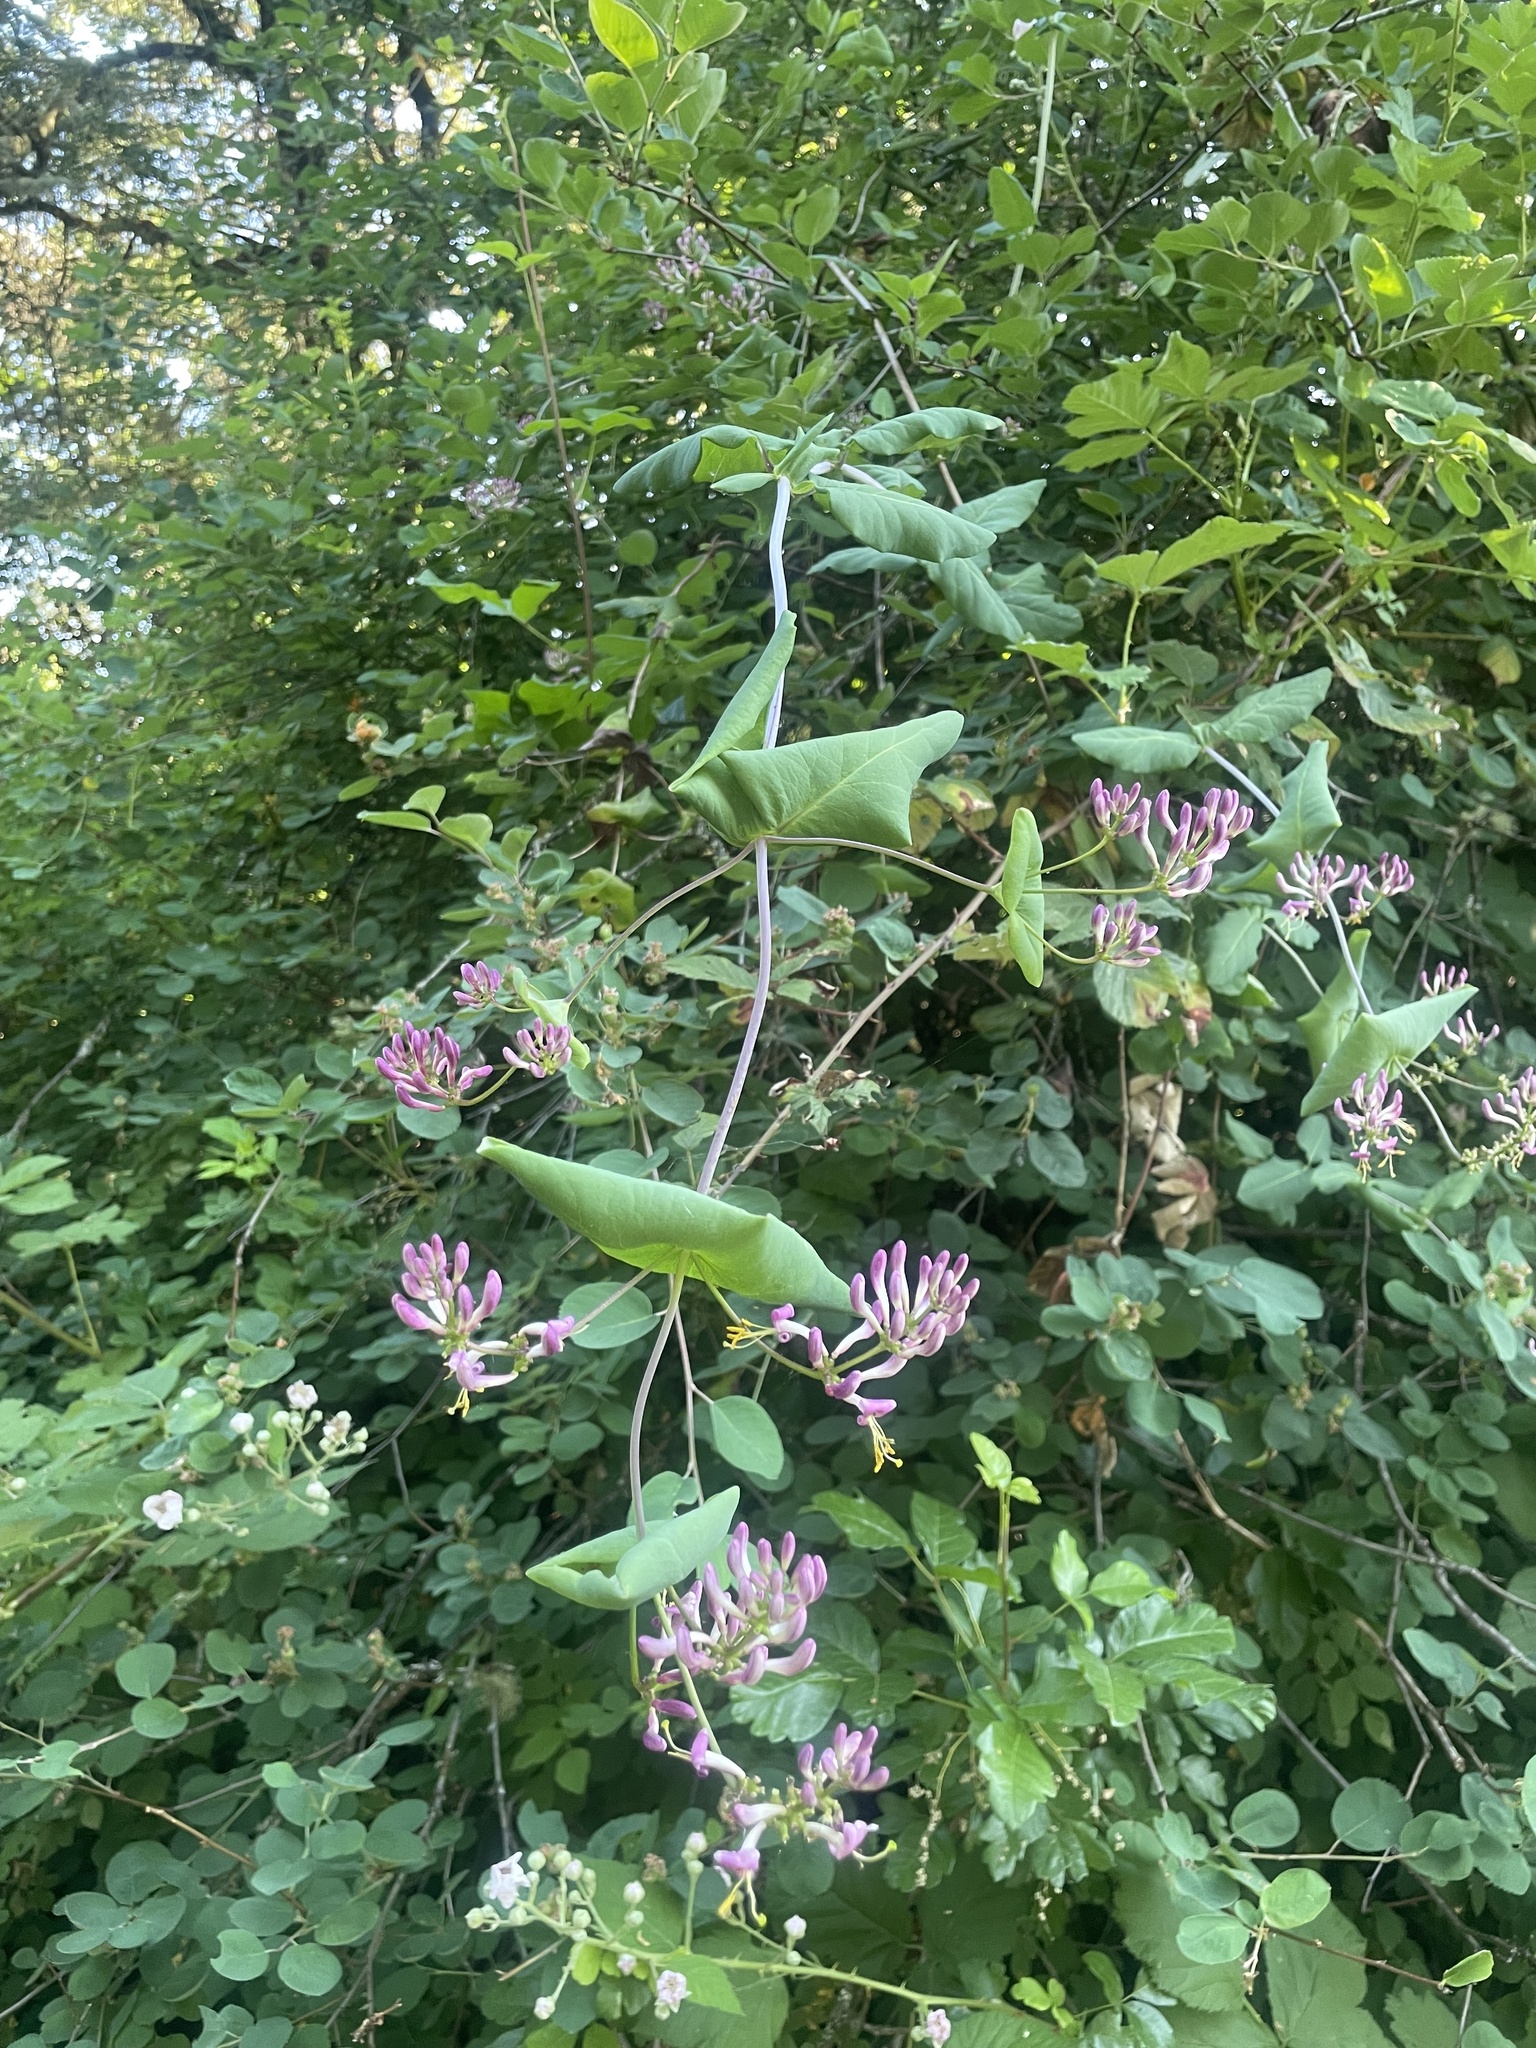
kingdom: Plantae
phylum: Tracheophyta
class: Magnoliopsida
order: Dipsacales
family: Caprifoliaceae
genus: Lonicera
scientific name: Lonicera hispidula
